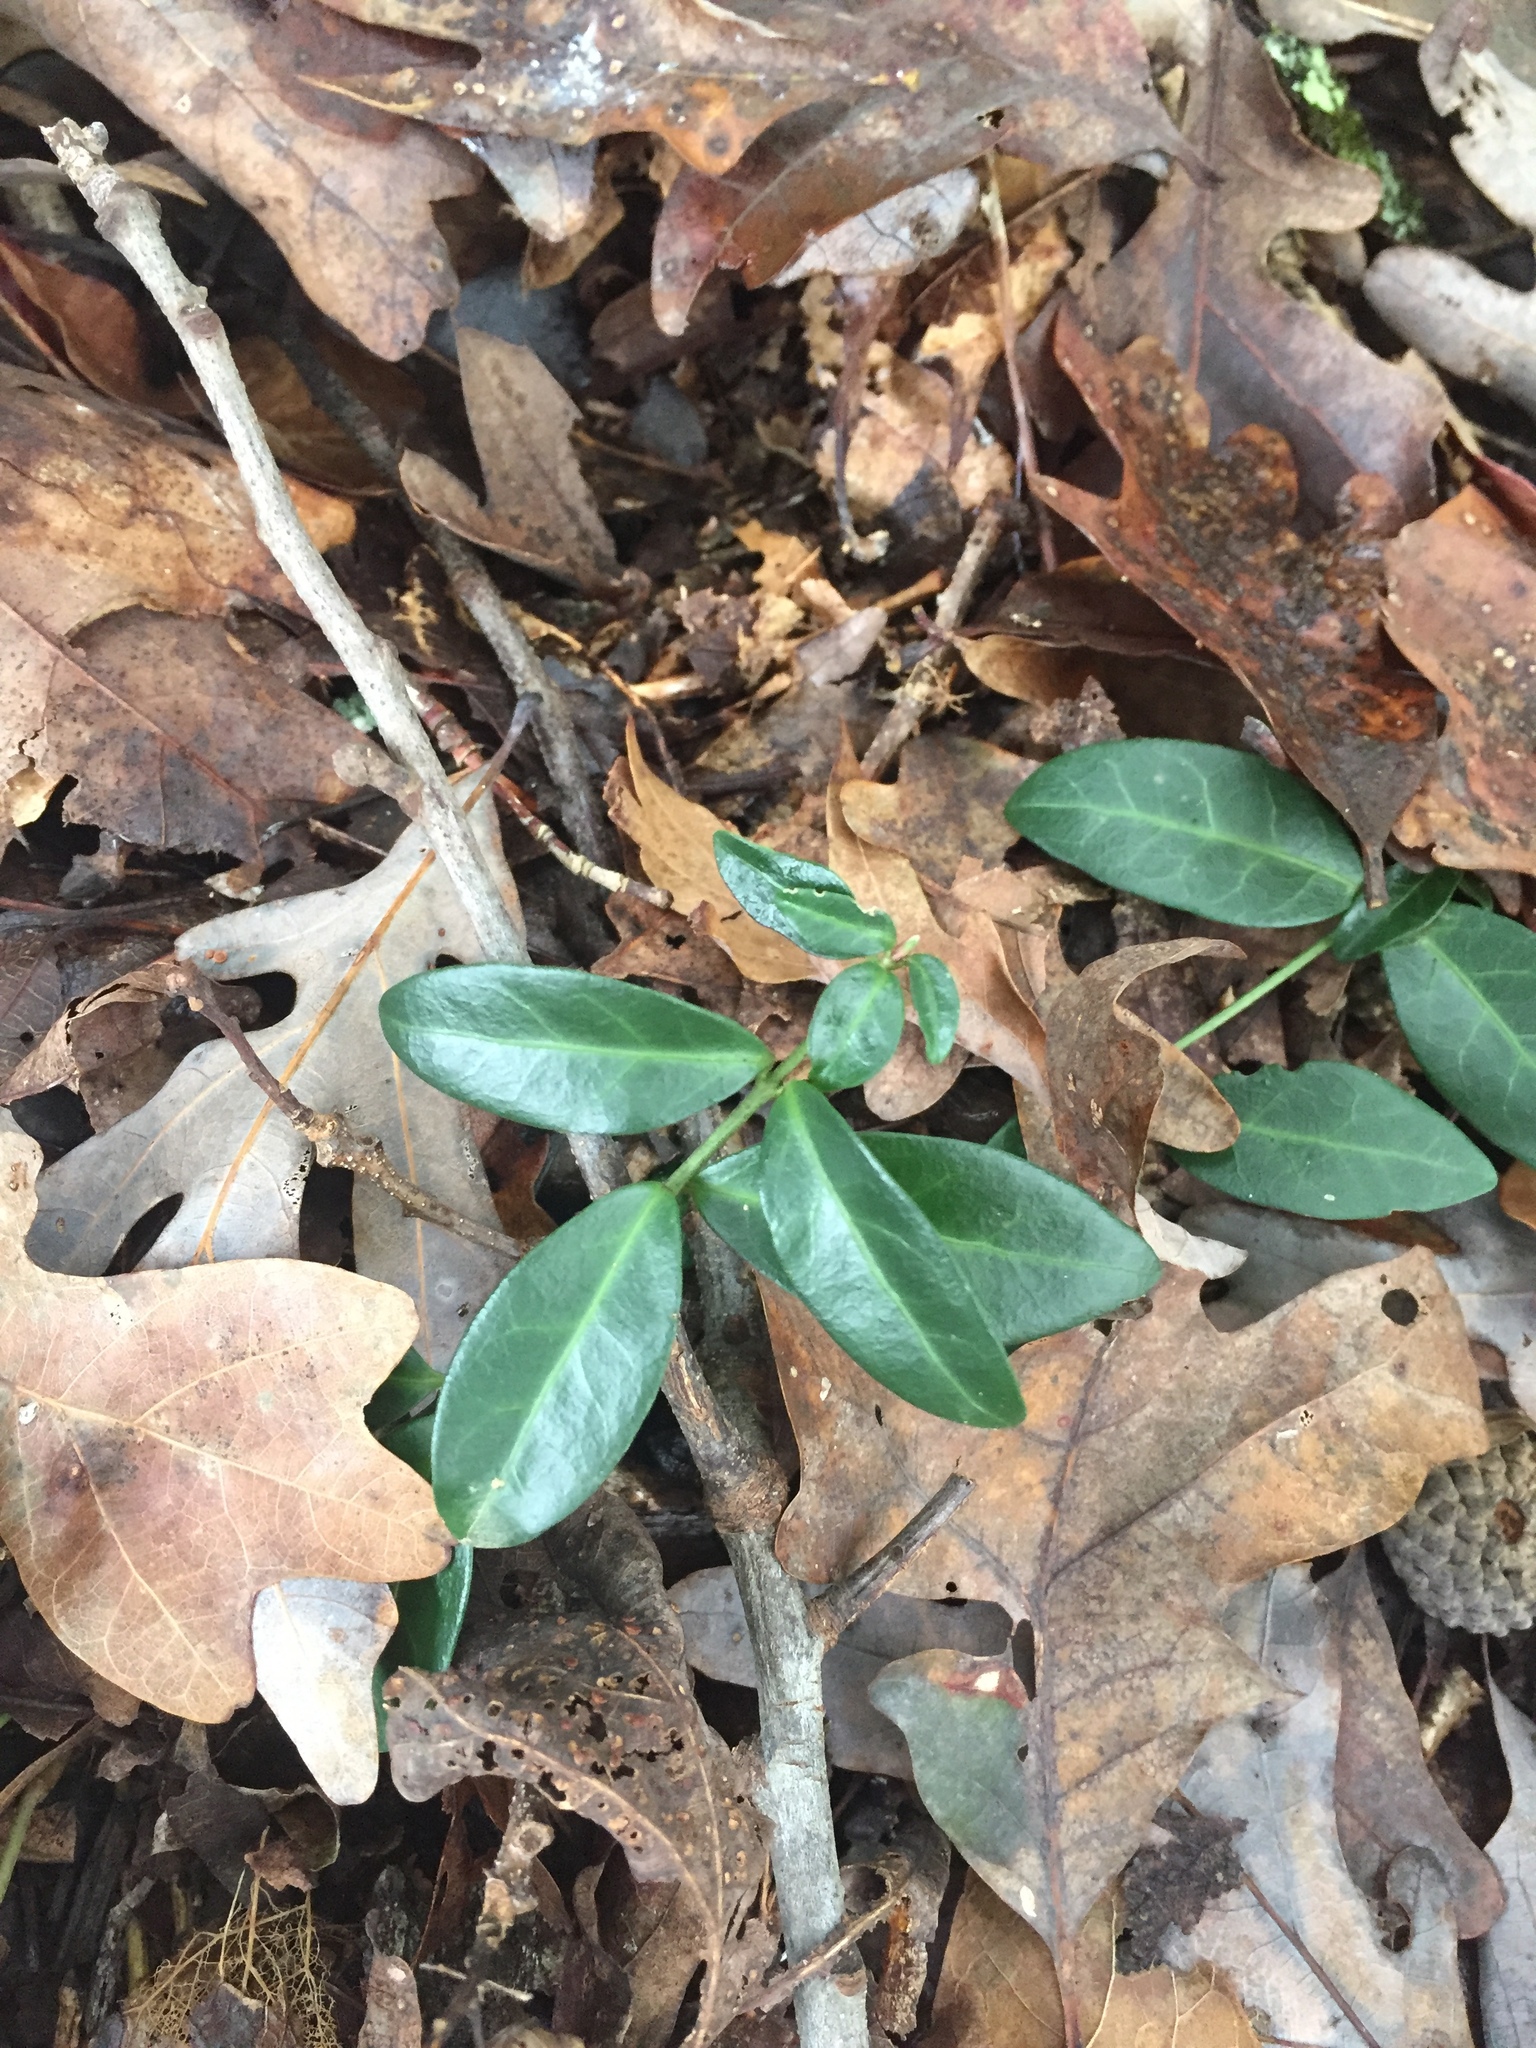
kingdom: Plantae
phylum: Tracheophyta
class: Magnoliopsida
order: Gentianales
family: Apocynaceae
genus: Vinca
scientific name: Vinca minor
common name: Lesser periwinkle
